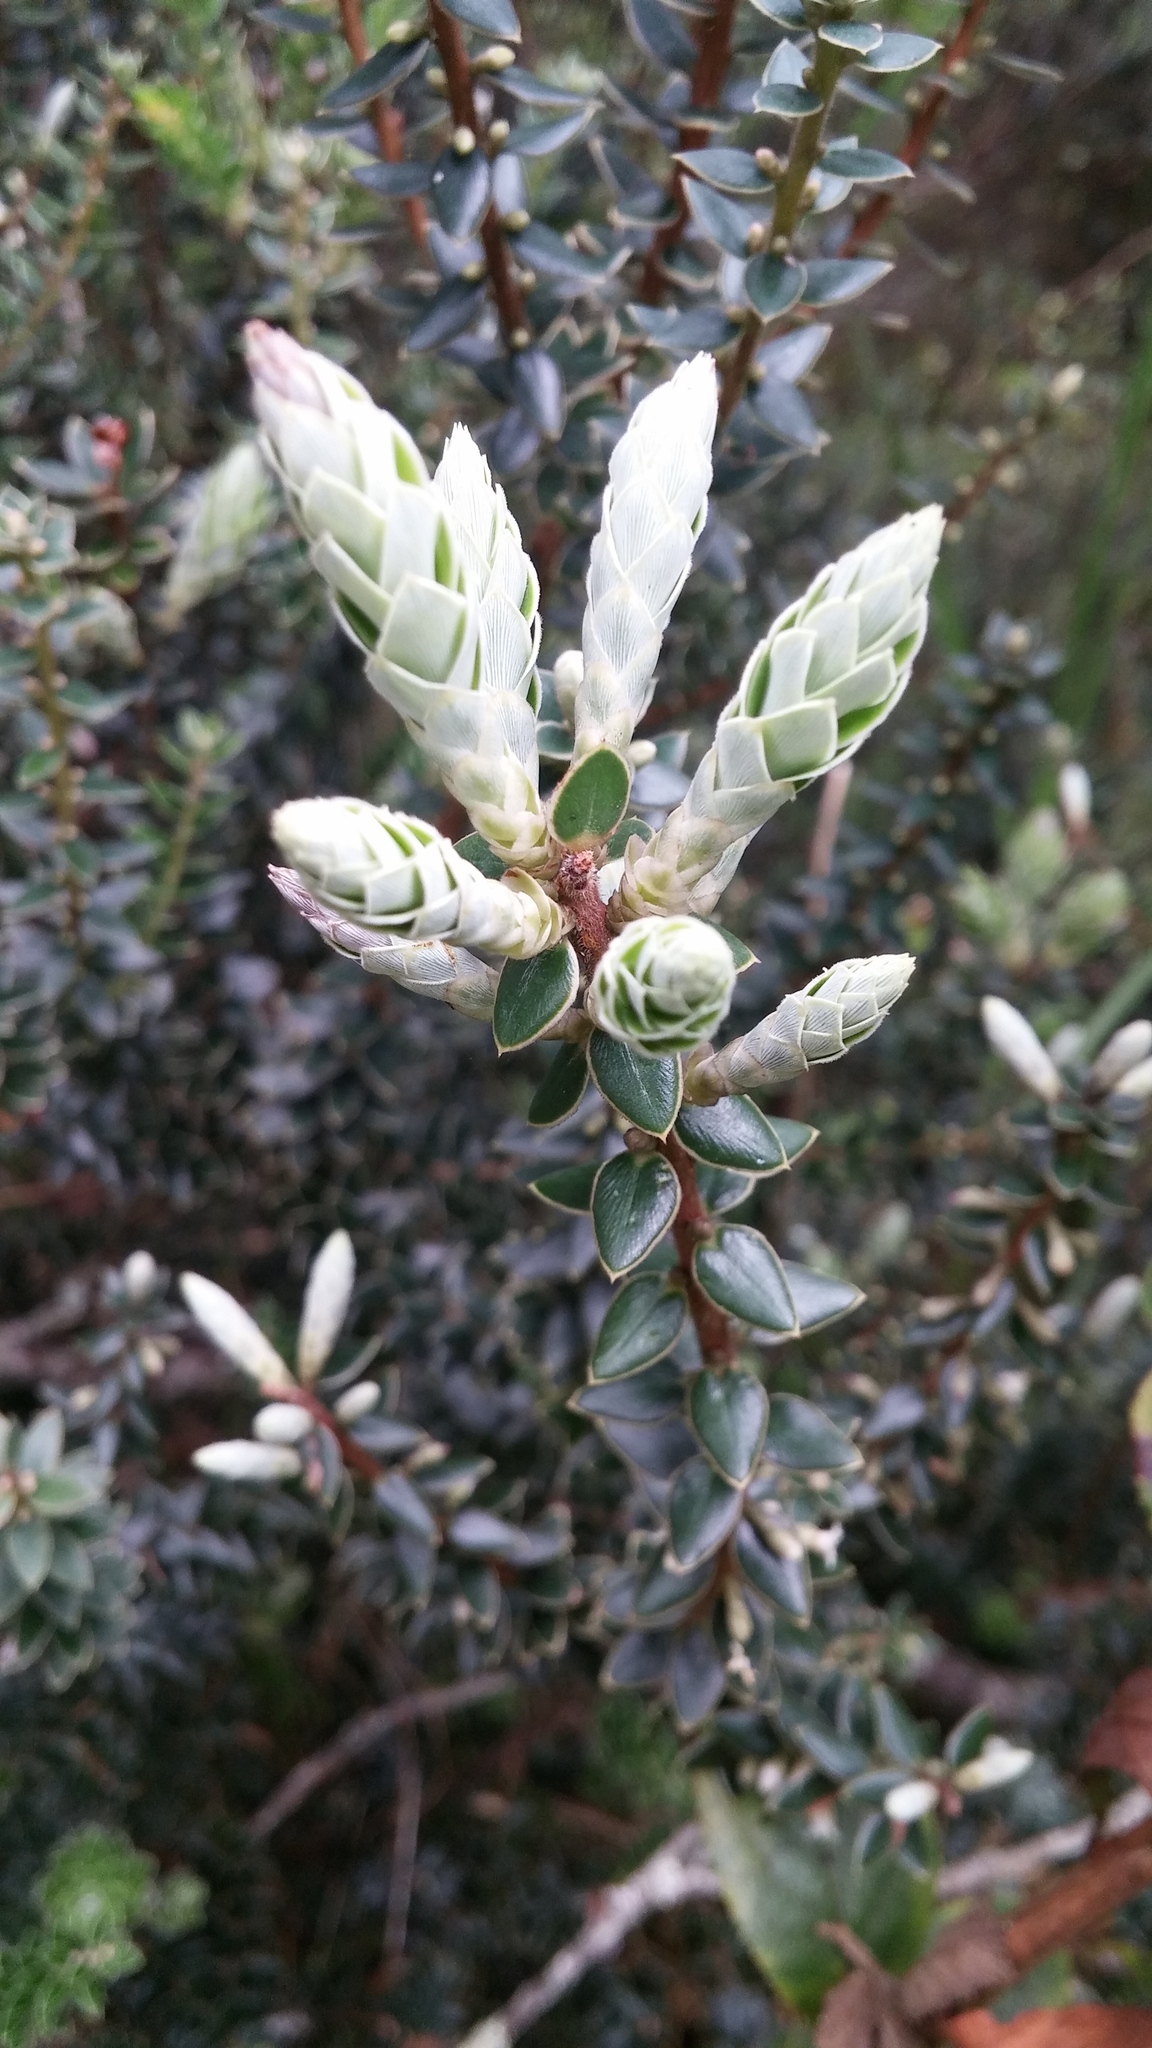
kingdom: Plantae
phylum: Tracheophyta
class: Magnoliopsida
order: Ericales
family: Ericaceae
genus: Leptecophylla
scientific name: Leptecophylla tameiameiae
